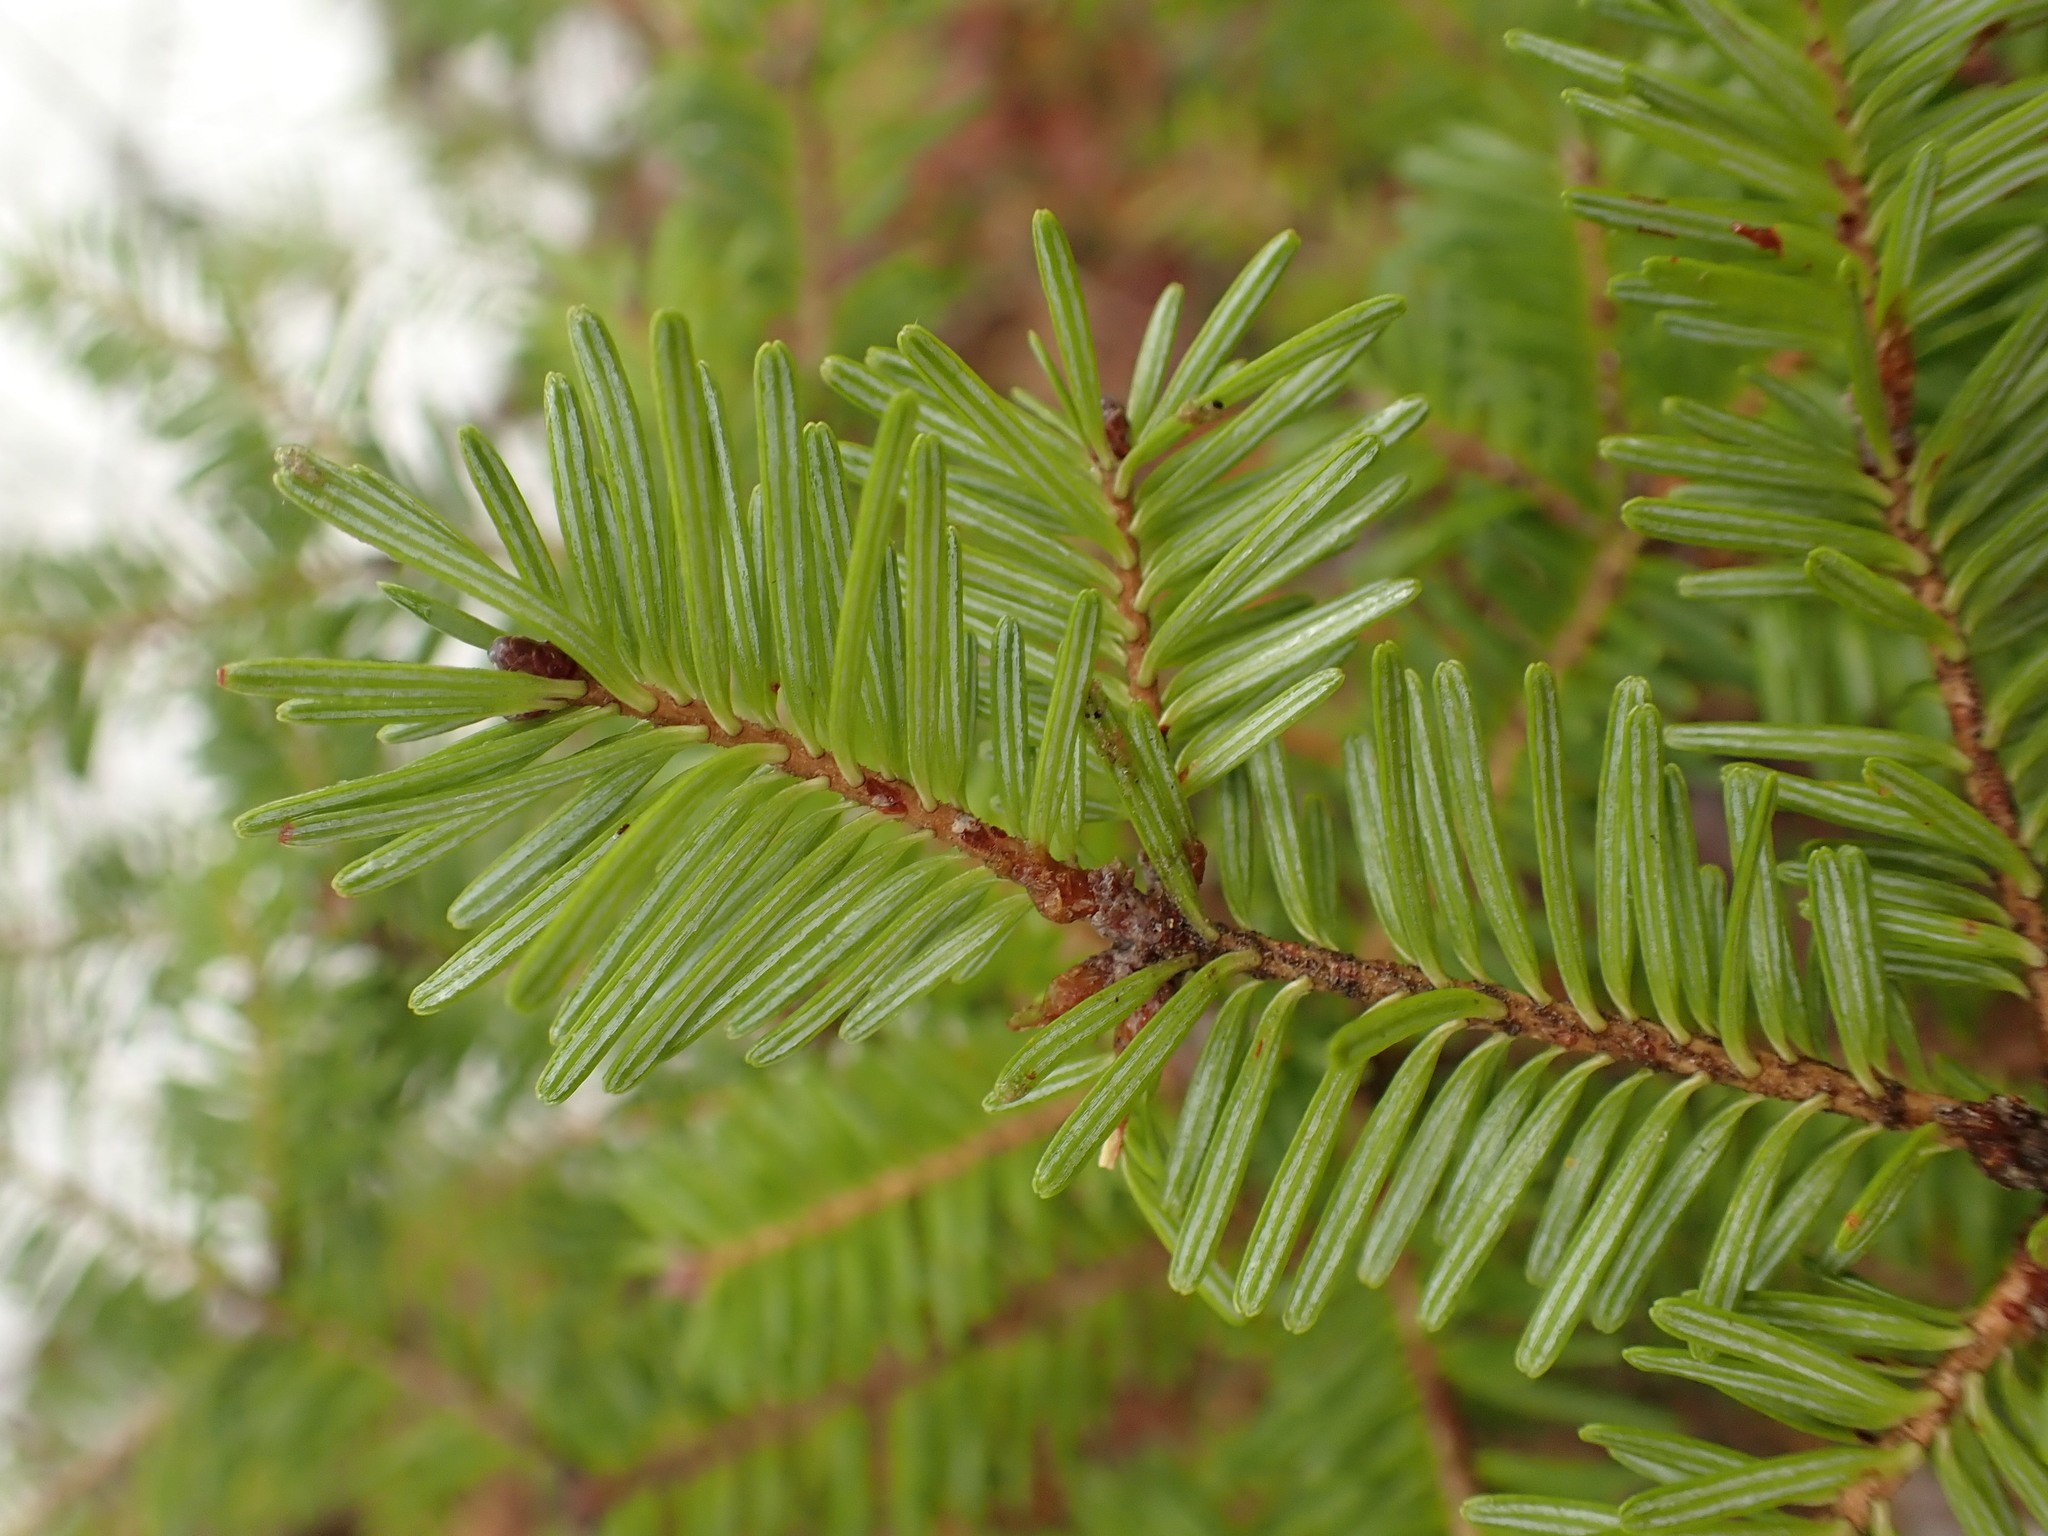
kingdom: Plantae
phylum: Tracheophyta
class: Pinopsida
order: Pinales
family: Pinaceae
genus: Abies
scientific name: Abies balsamea
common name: Balsam fir
